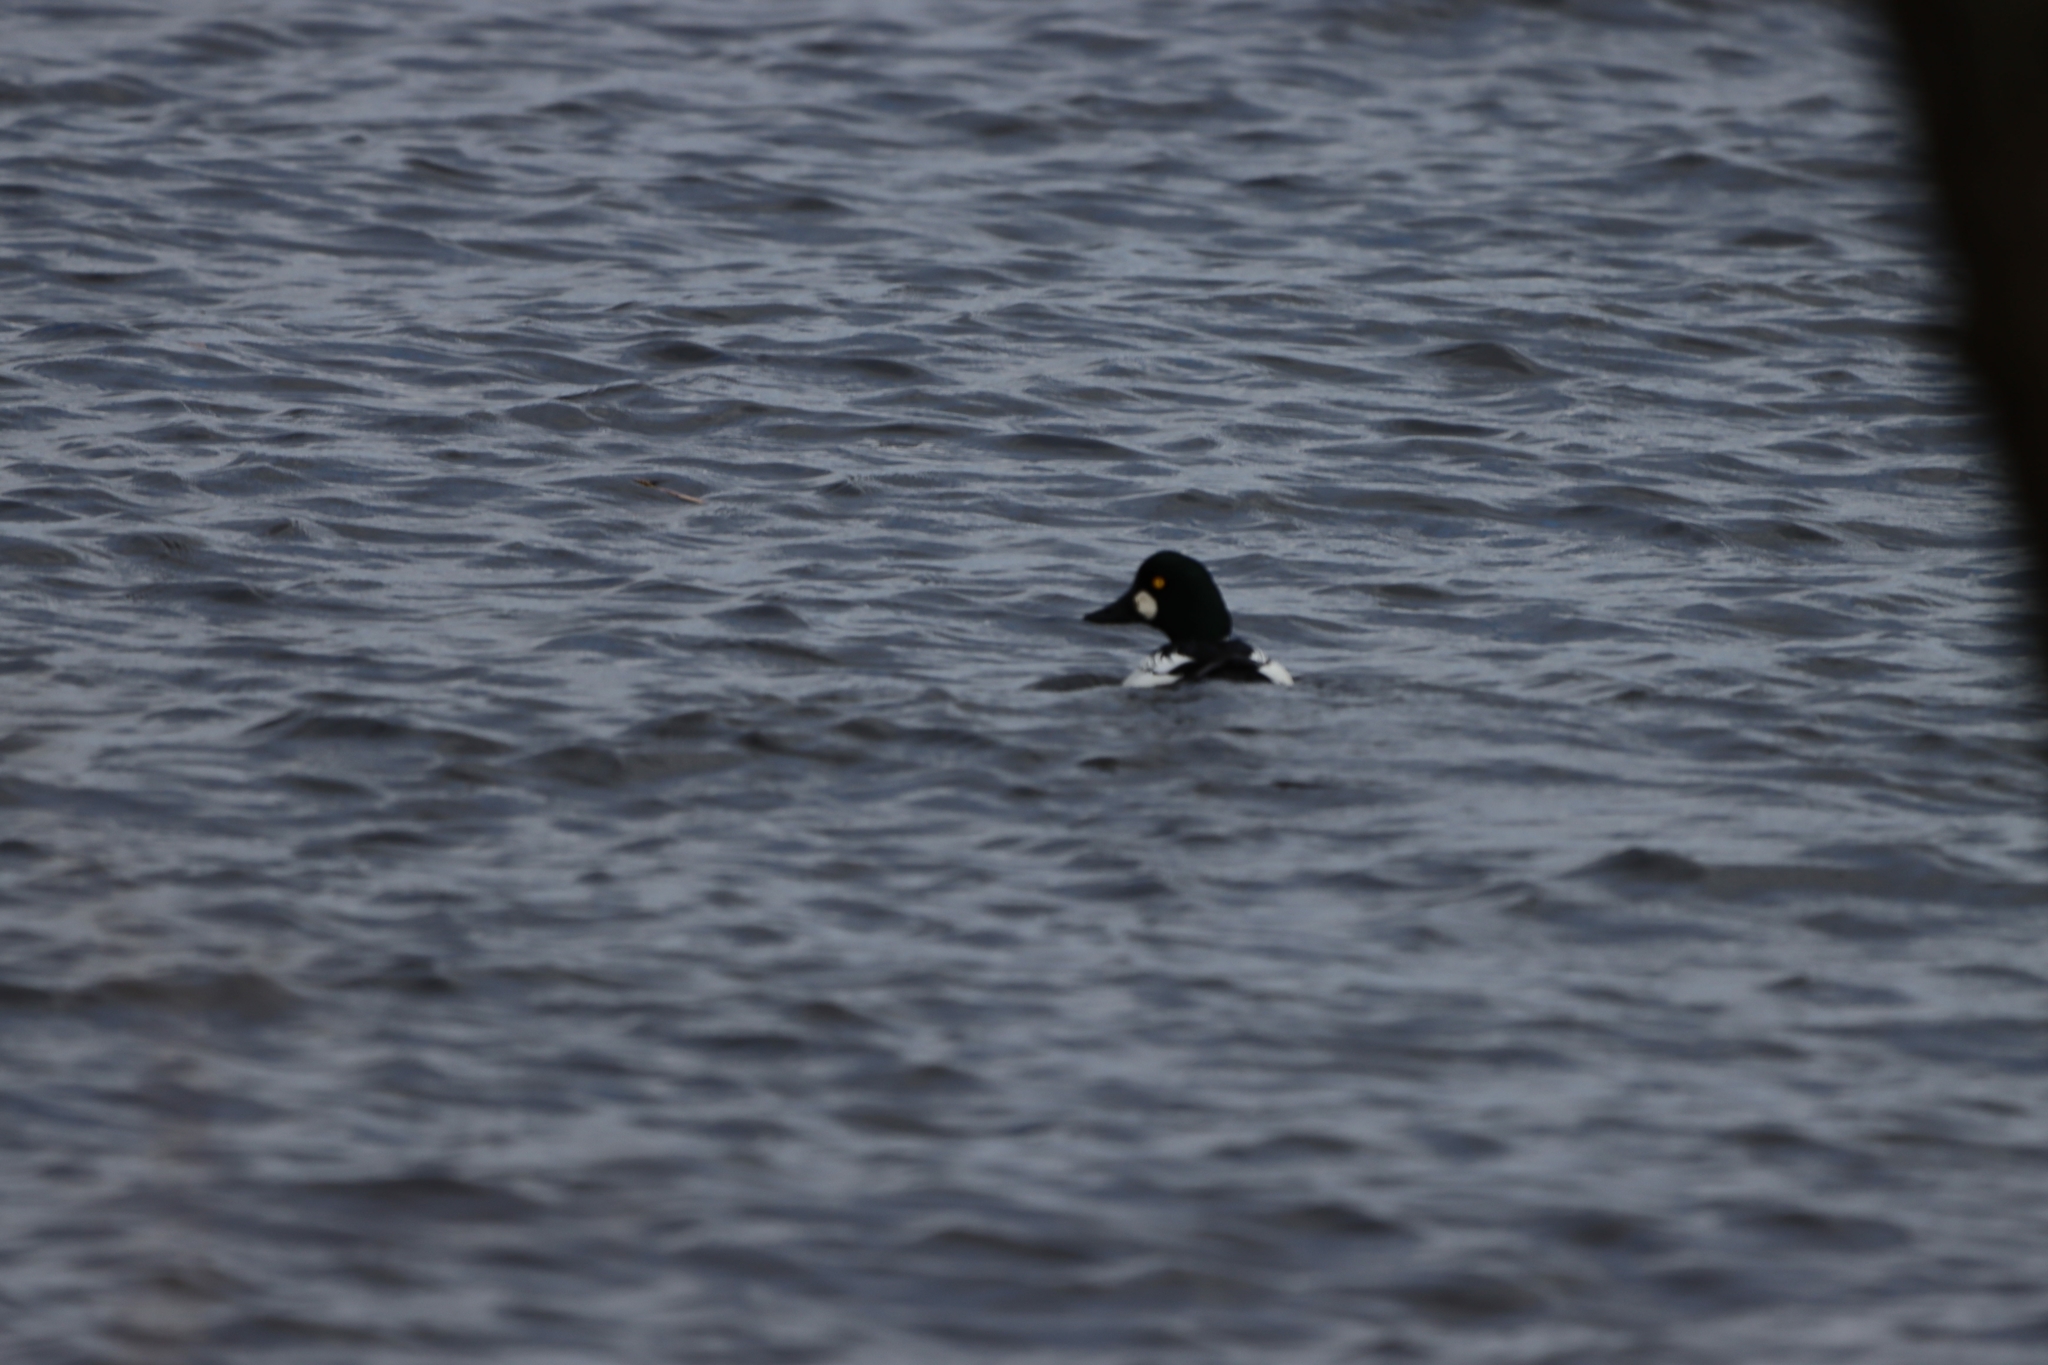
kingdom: Animalia
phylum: Chordata
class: Aves
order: Anseriformes
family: Anatidae
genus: Bucephala
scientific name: Bucephala clangula
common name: Common goldeneye
